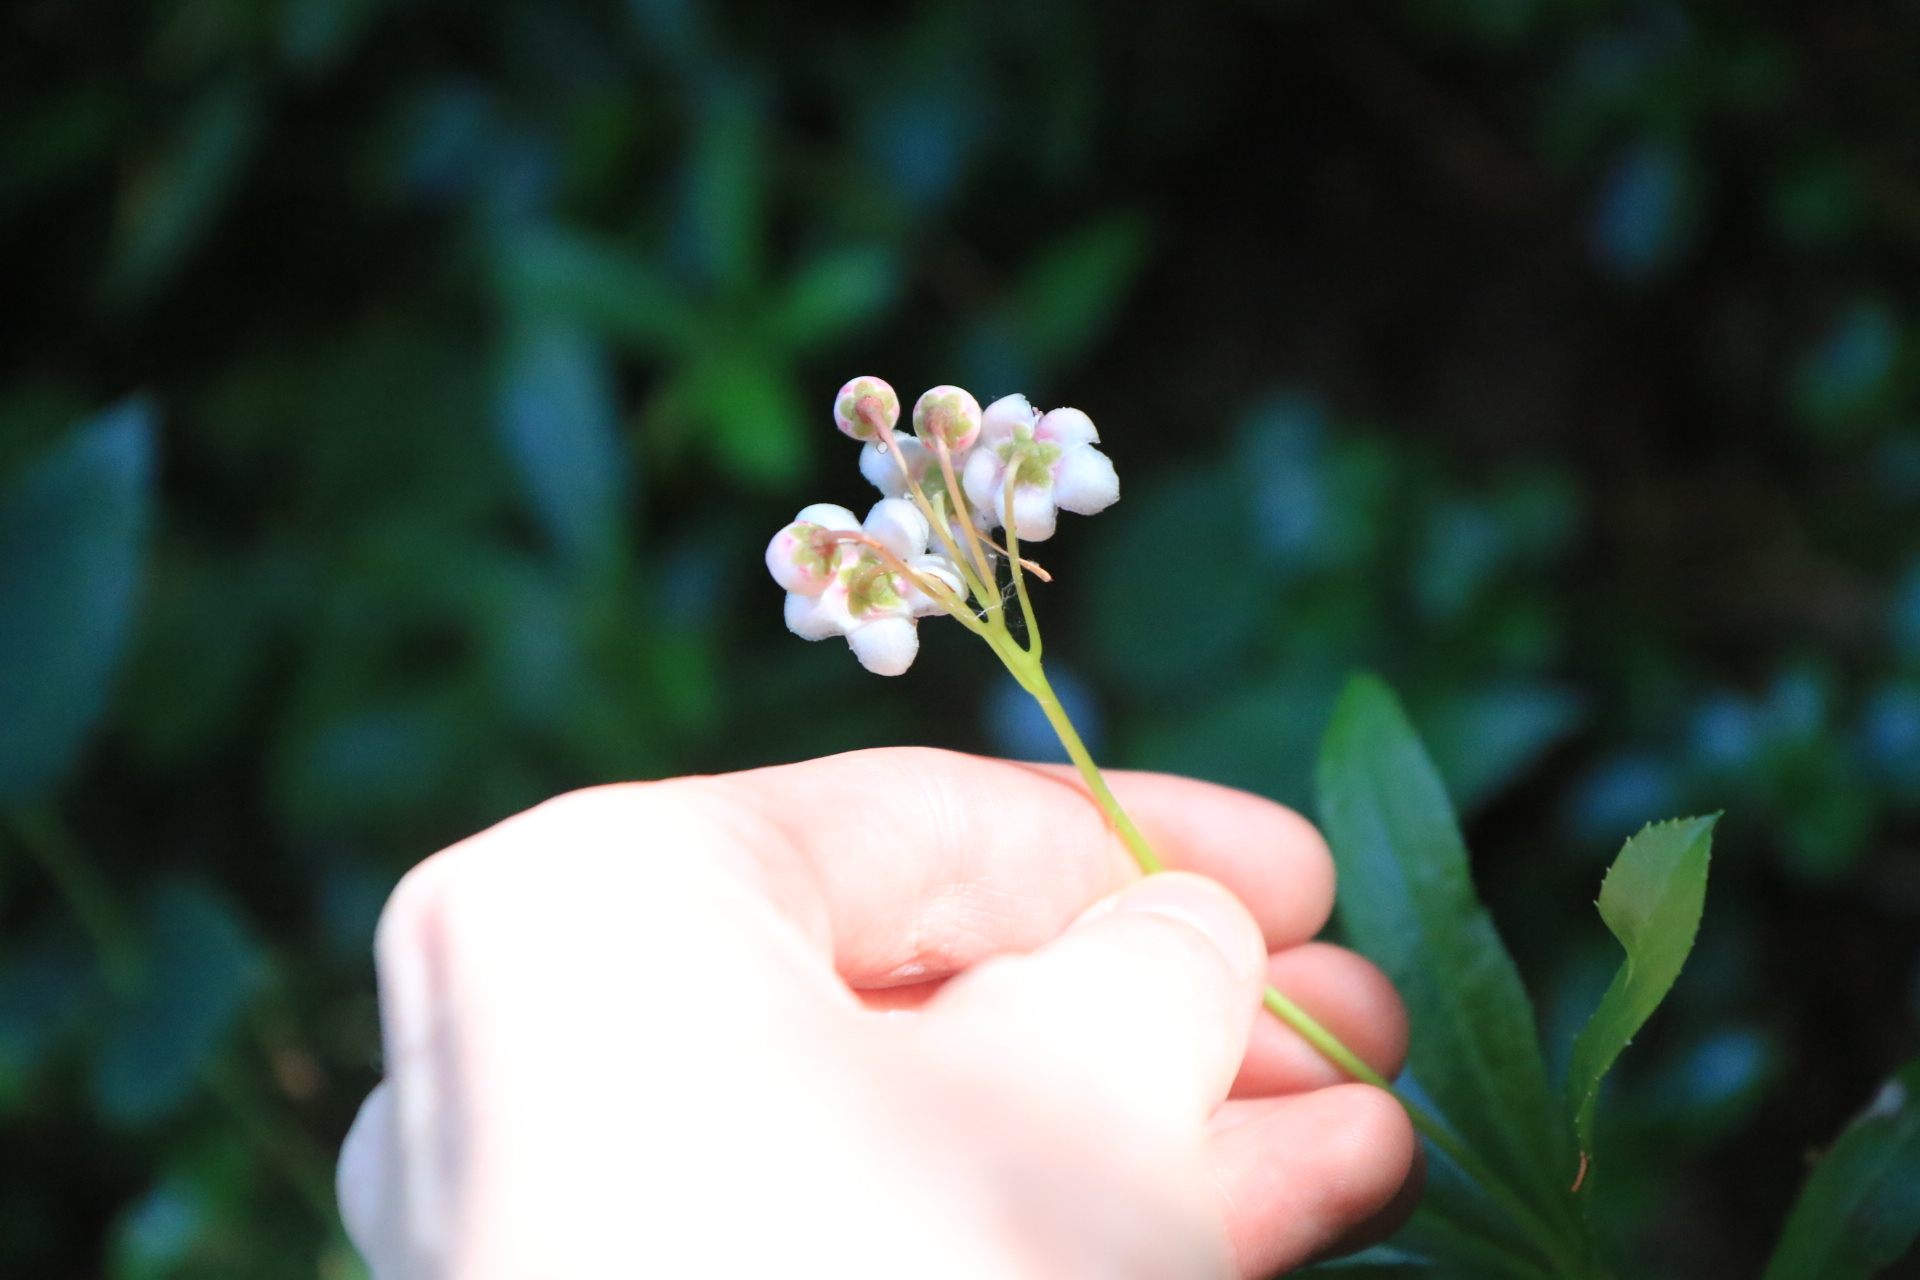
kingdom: Plantae
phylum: Tracheophyta
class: Magnoliopsida
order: Ericales
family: Ericaceae
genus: Chimaphila
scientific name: Chimaphila umbellata
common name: Pipsissewa
